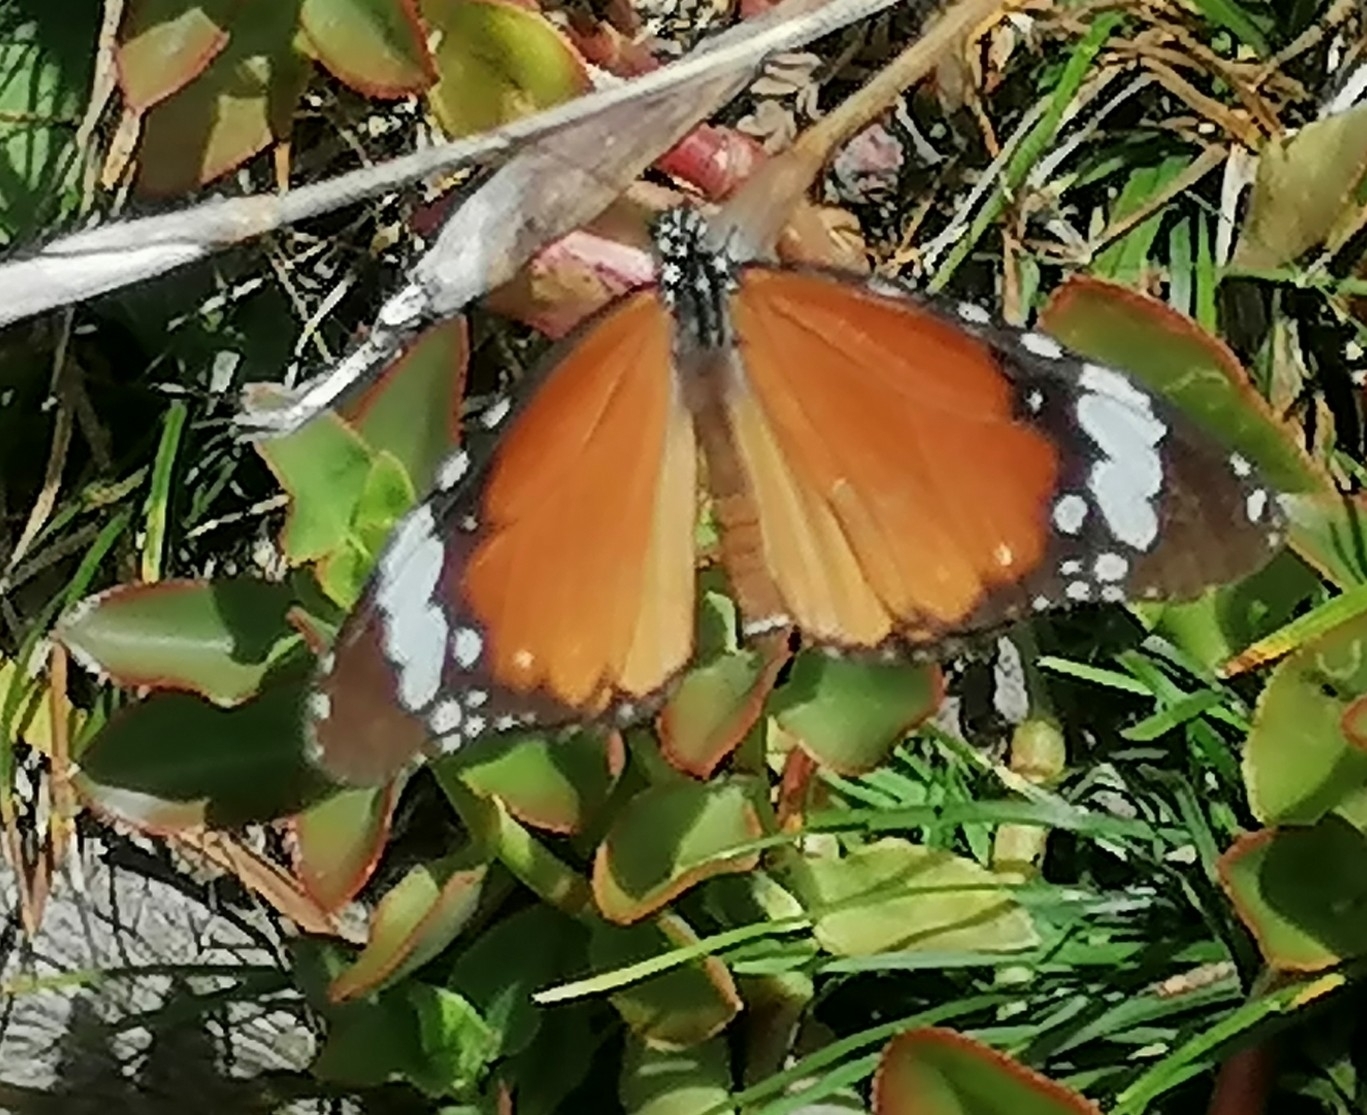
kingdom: Animalia
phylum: Arthropoda
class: Insecta
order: Lepidoptera
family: Nymphalidae
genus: Danaus
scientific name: Danaus chrysippus
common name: Plain tiger
